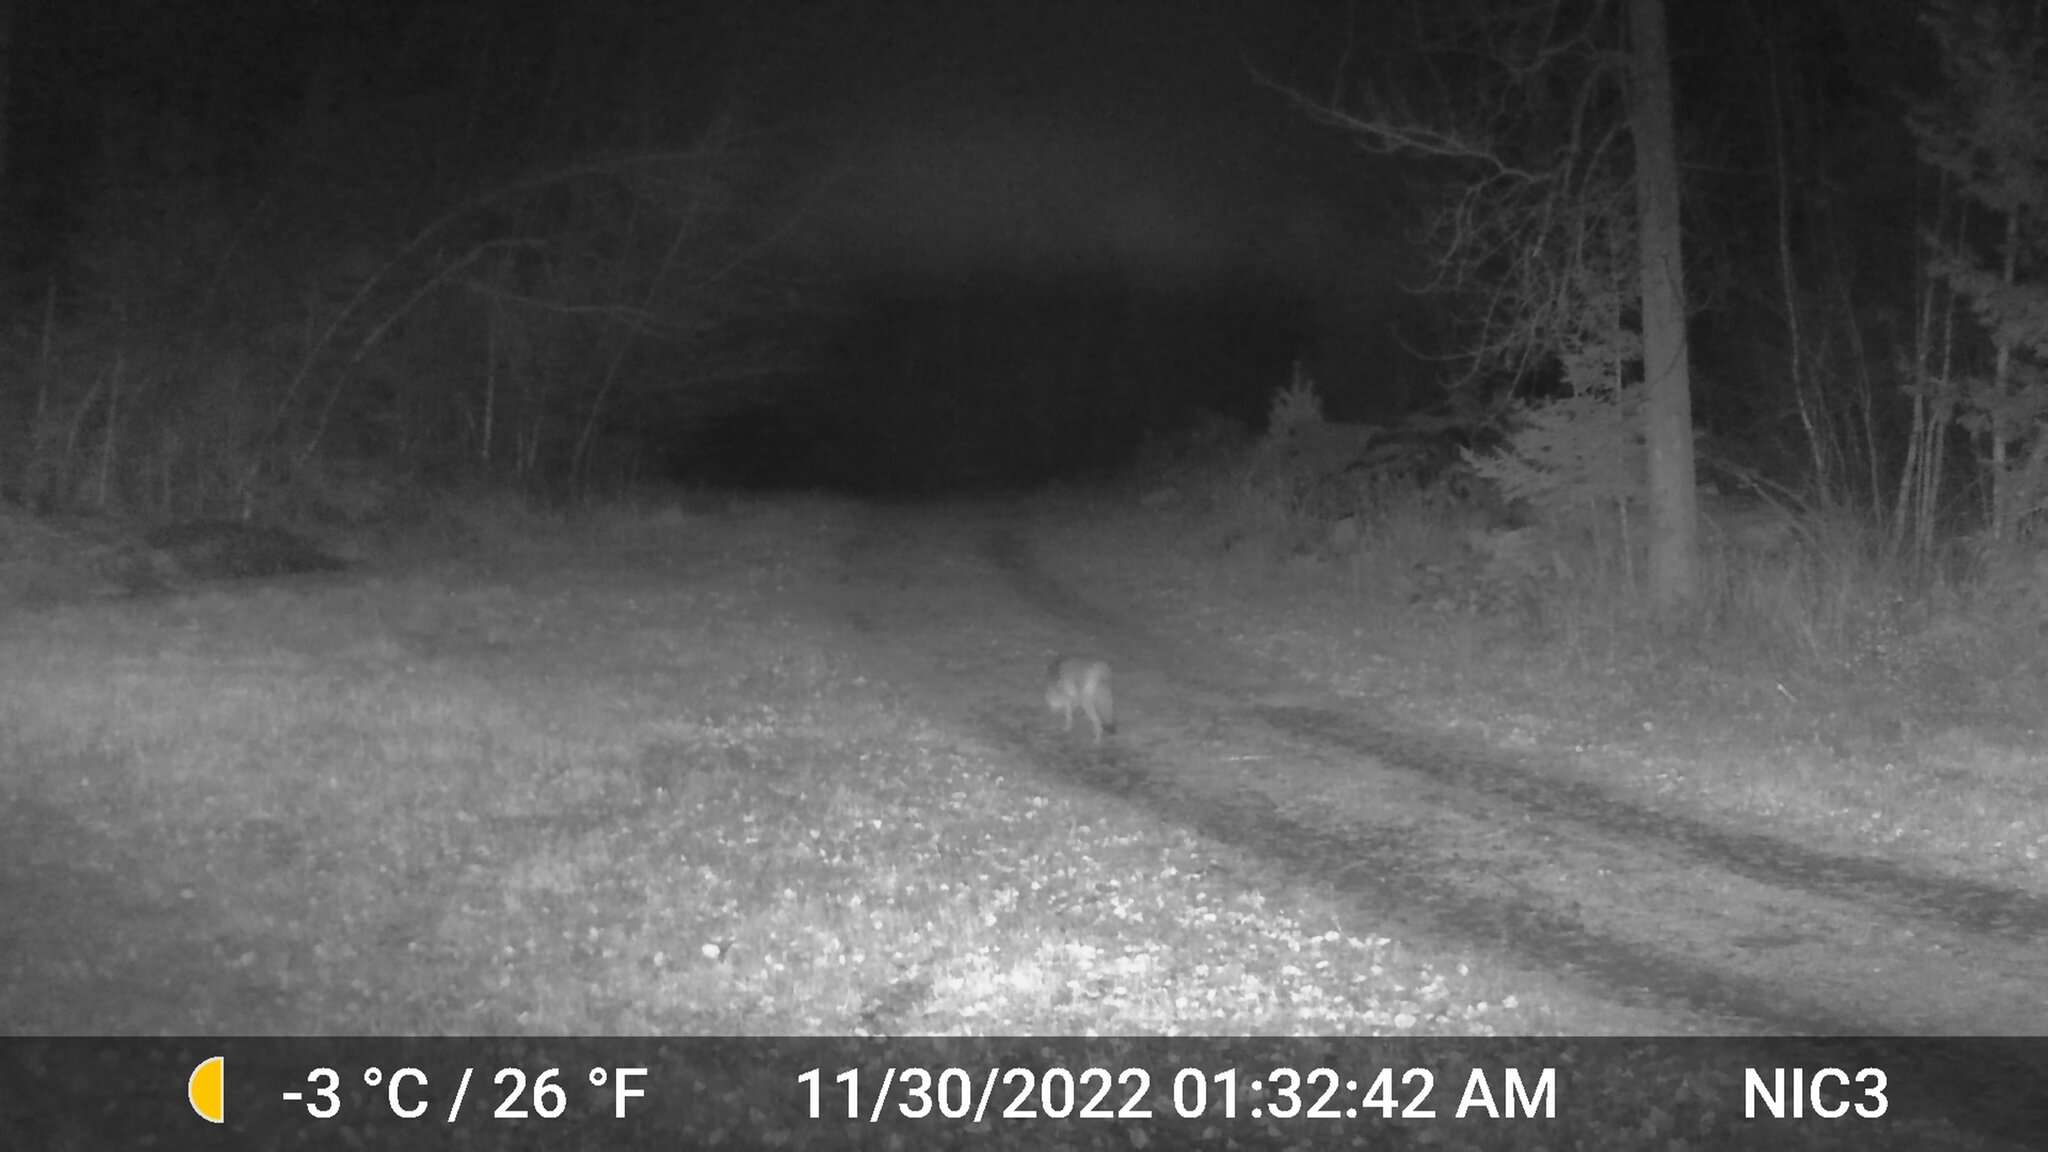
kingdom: Animalia
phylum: Chordata
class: Mammalia
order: Carnivora
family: Canidae
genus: Canis
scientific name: Canis latrans
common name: Coyote
